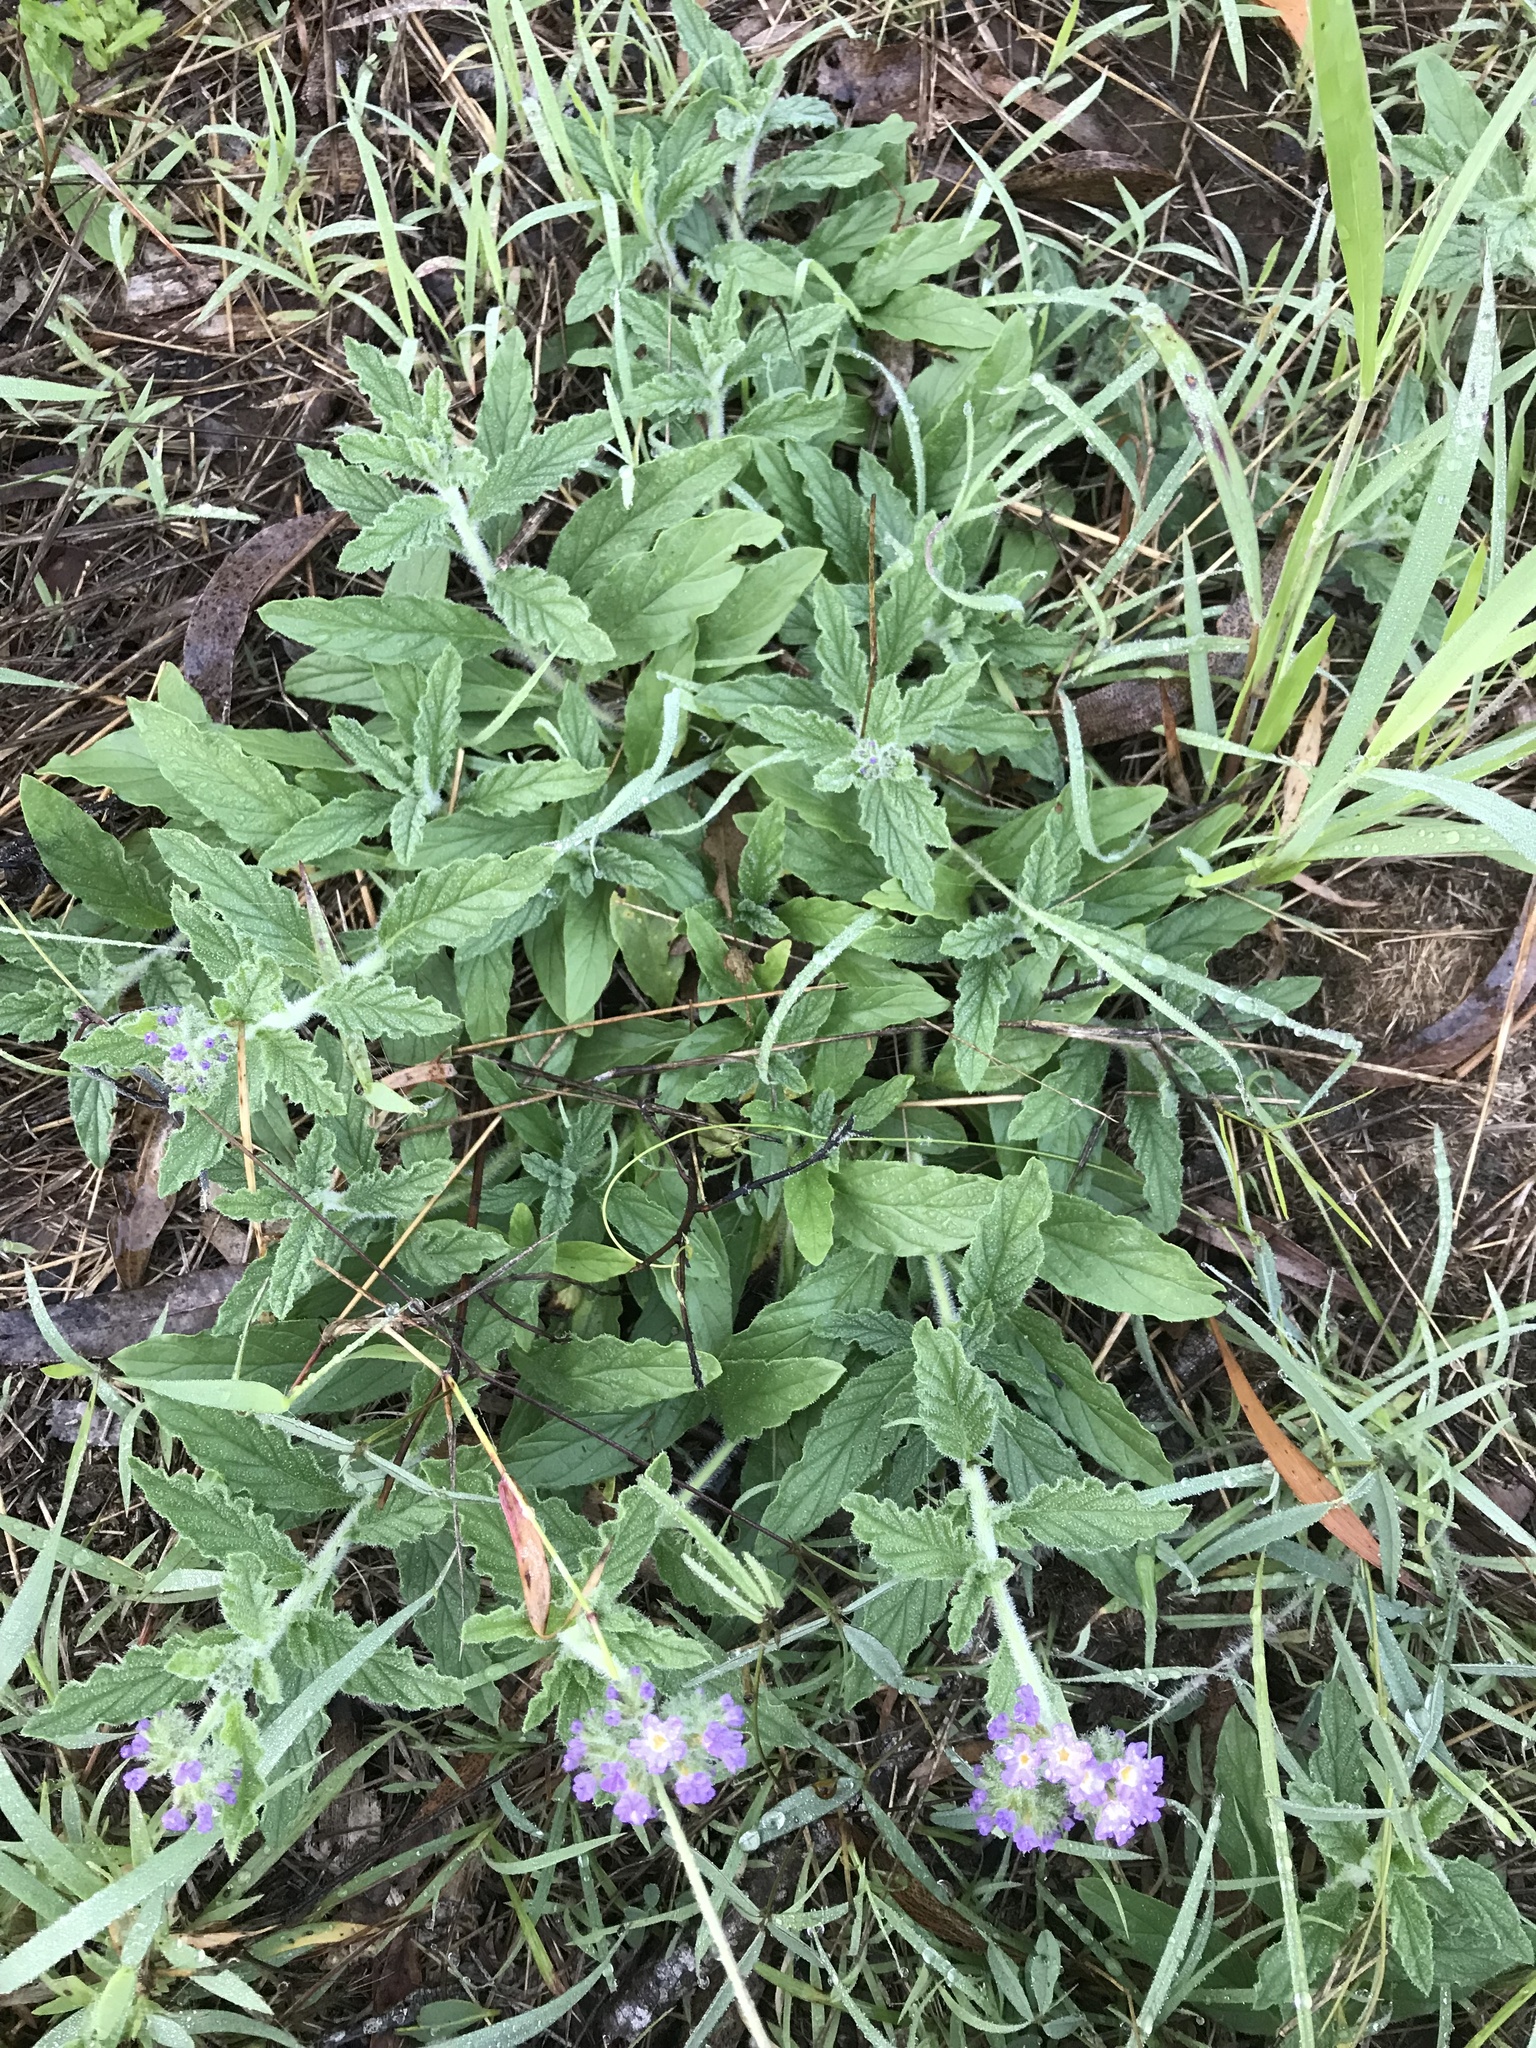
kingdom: Plantae
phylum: Tracheophyta
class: Magnoliopsida
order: Boraginales
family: Heliotropiaceae
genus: Heliotropium
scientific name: Heliotropium amplexicaule
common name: Clasping heliotrope
